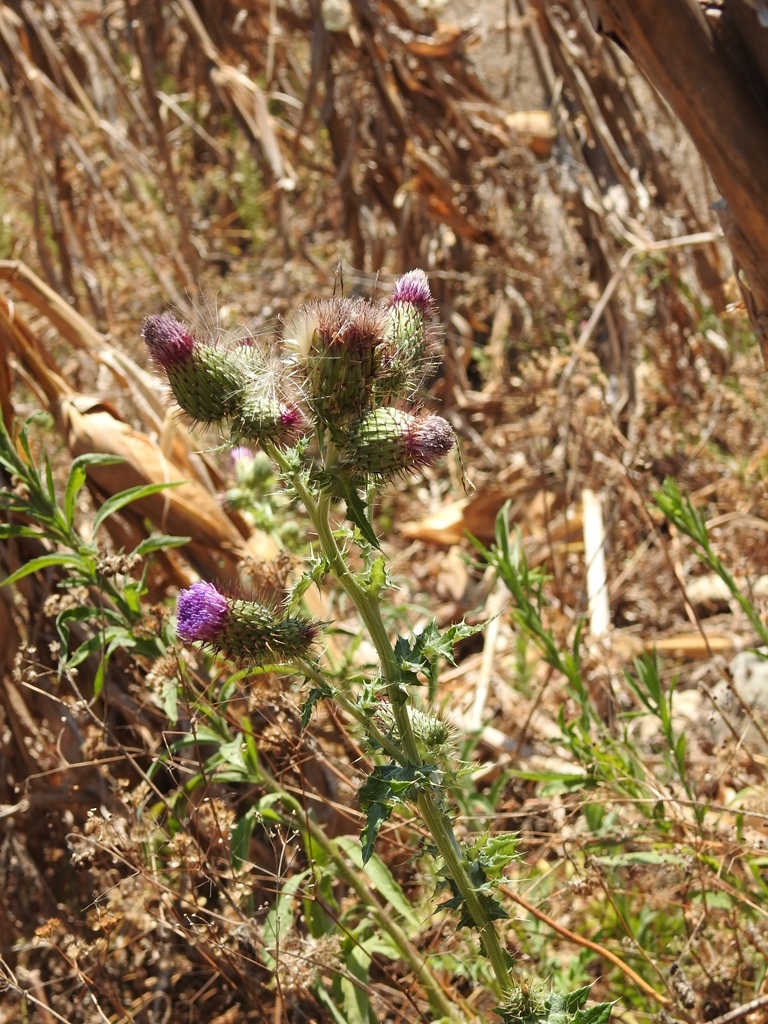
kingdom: Plantae
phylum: Tracheophyta
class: Magnoliopsida
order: Asterales
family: Asteraceae
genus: Cirsium
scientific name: Cirsium mexicanum
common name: Mexican thistle
